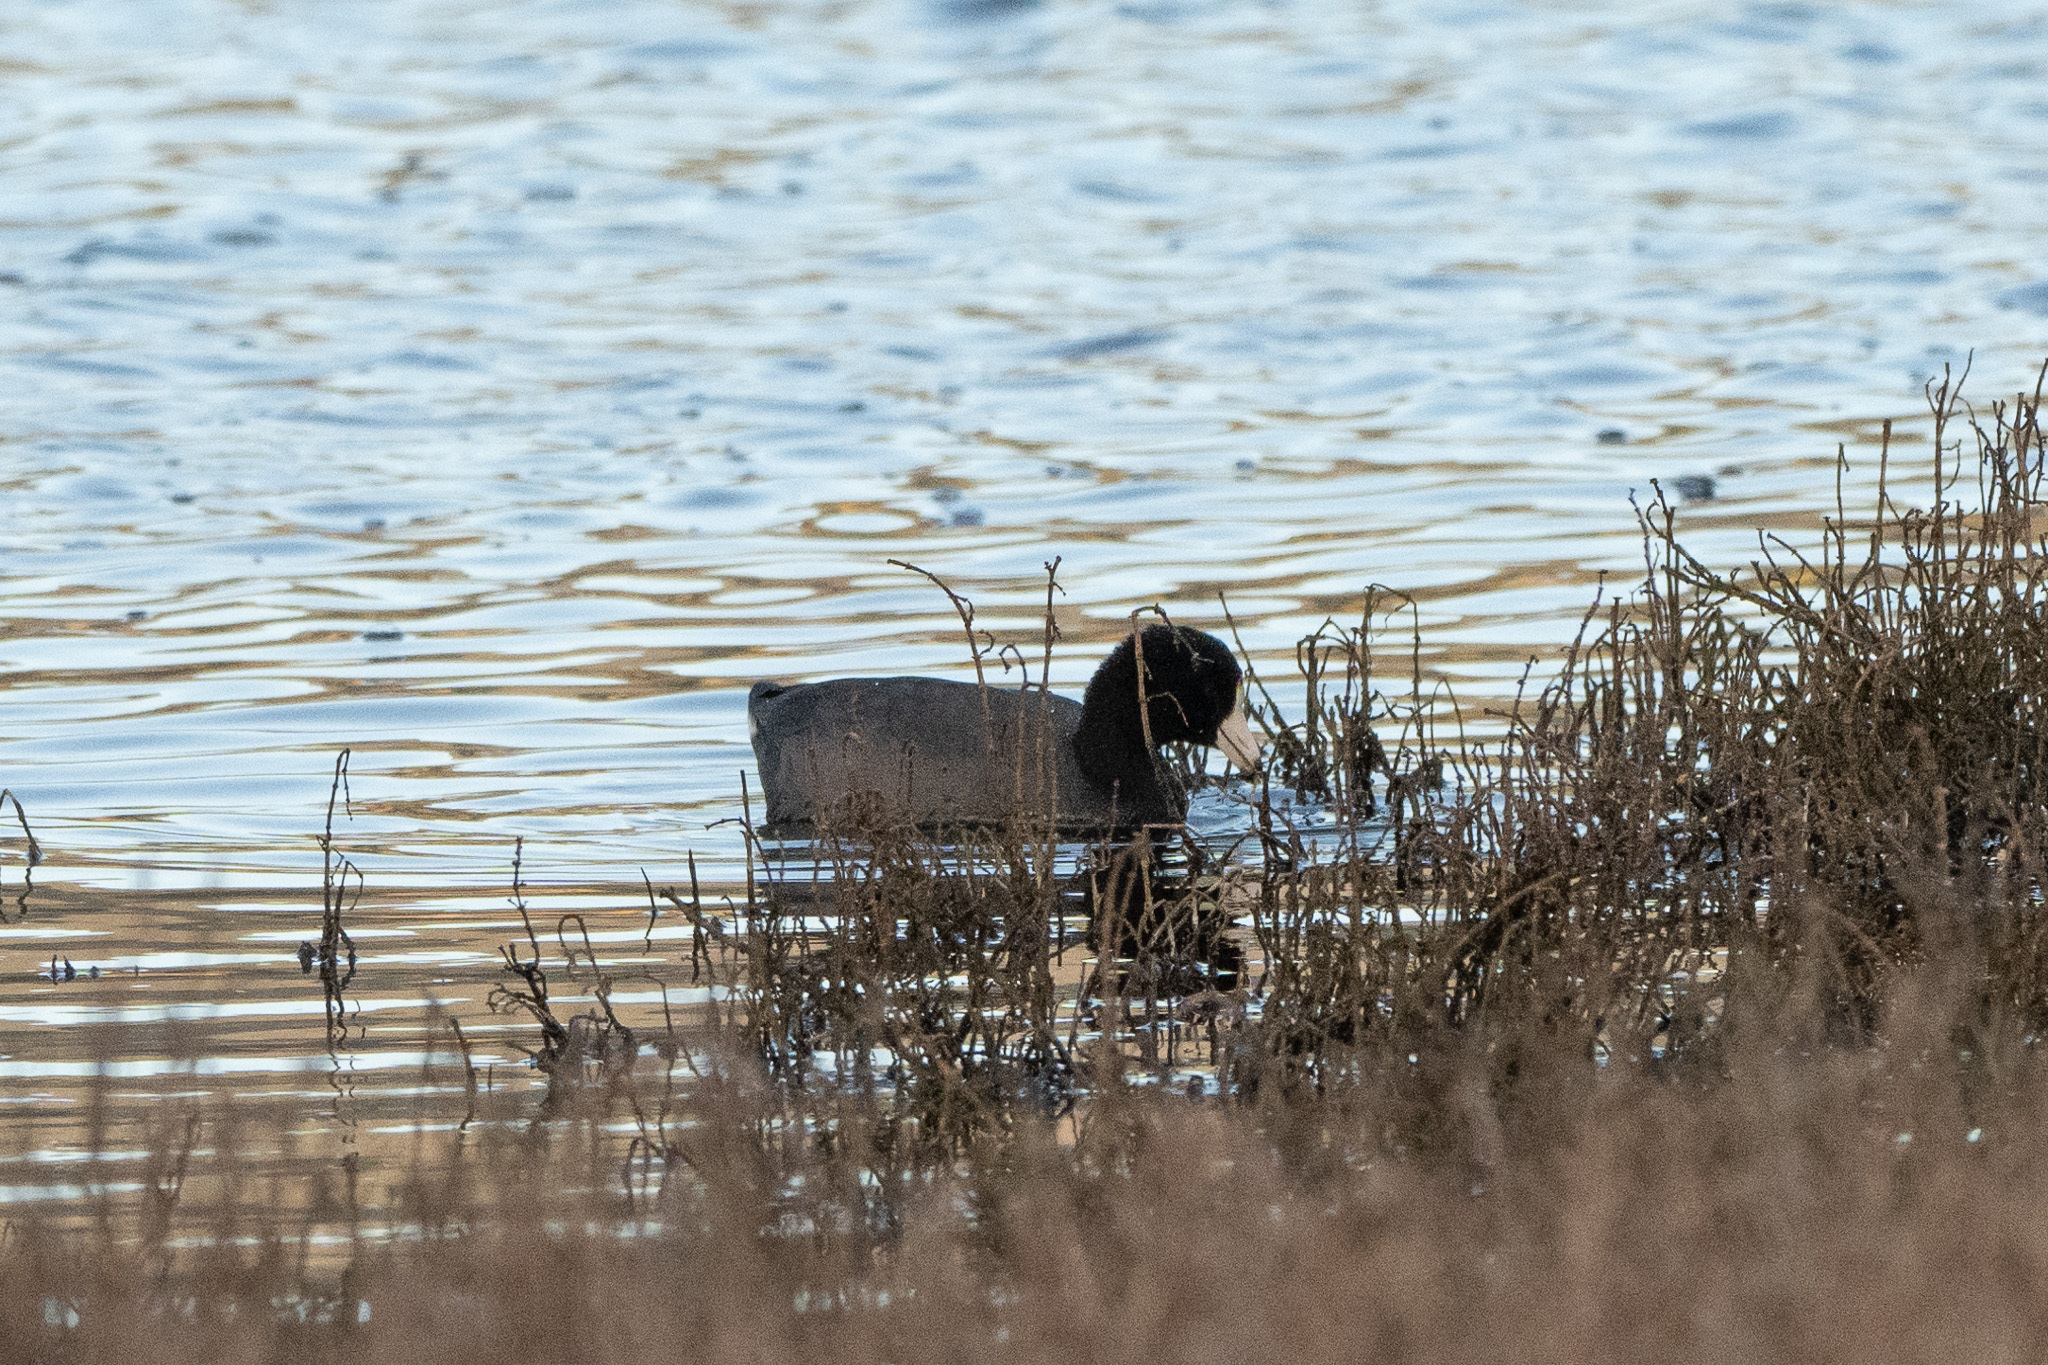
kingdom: Animalia
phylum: Chordata
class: Aves
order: Gruiformes
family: Rallidae
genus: Fulica
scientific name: Fulica americana
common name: American coot
